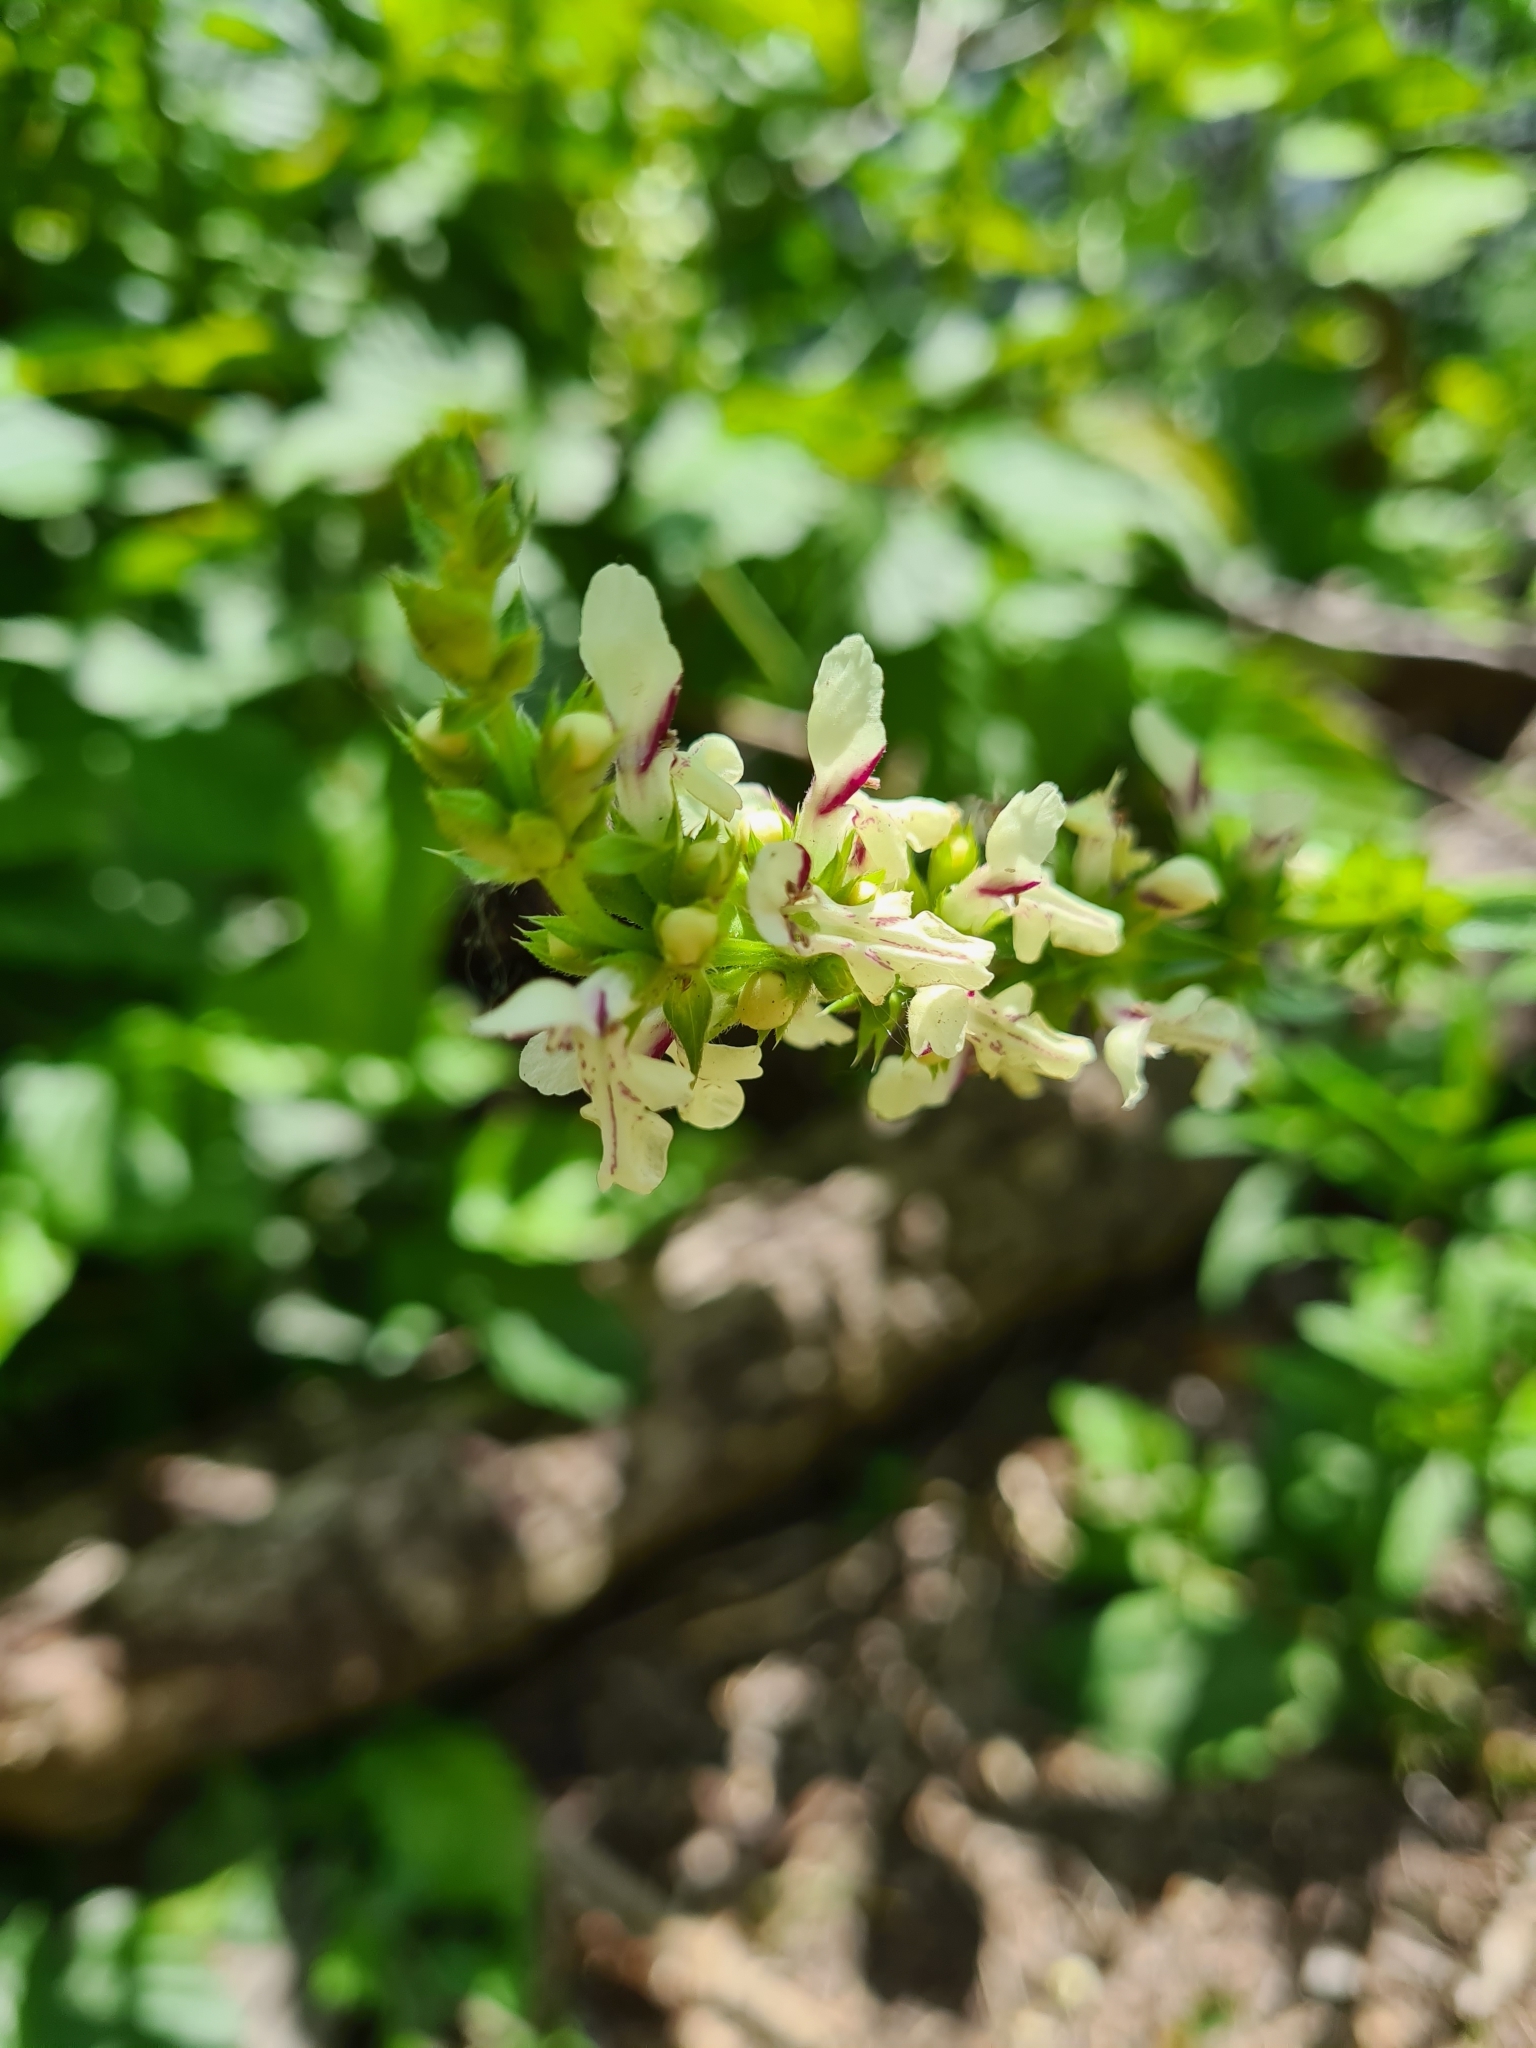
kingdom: Plantae
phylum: Tracheophyta
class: Magnoliopsida
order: Lamiales
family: Lamiaceae
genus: Stachys
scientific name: Stachys recta
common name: Perennial yellow-woundwort
